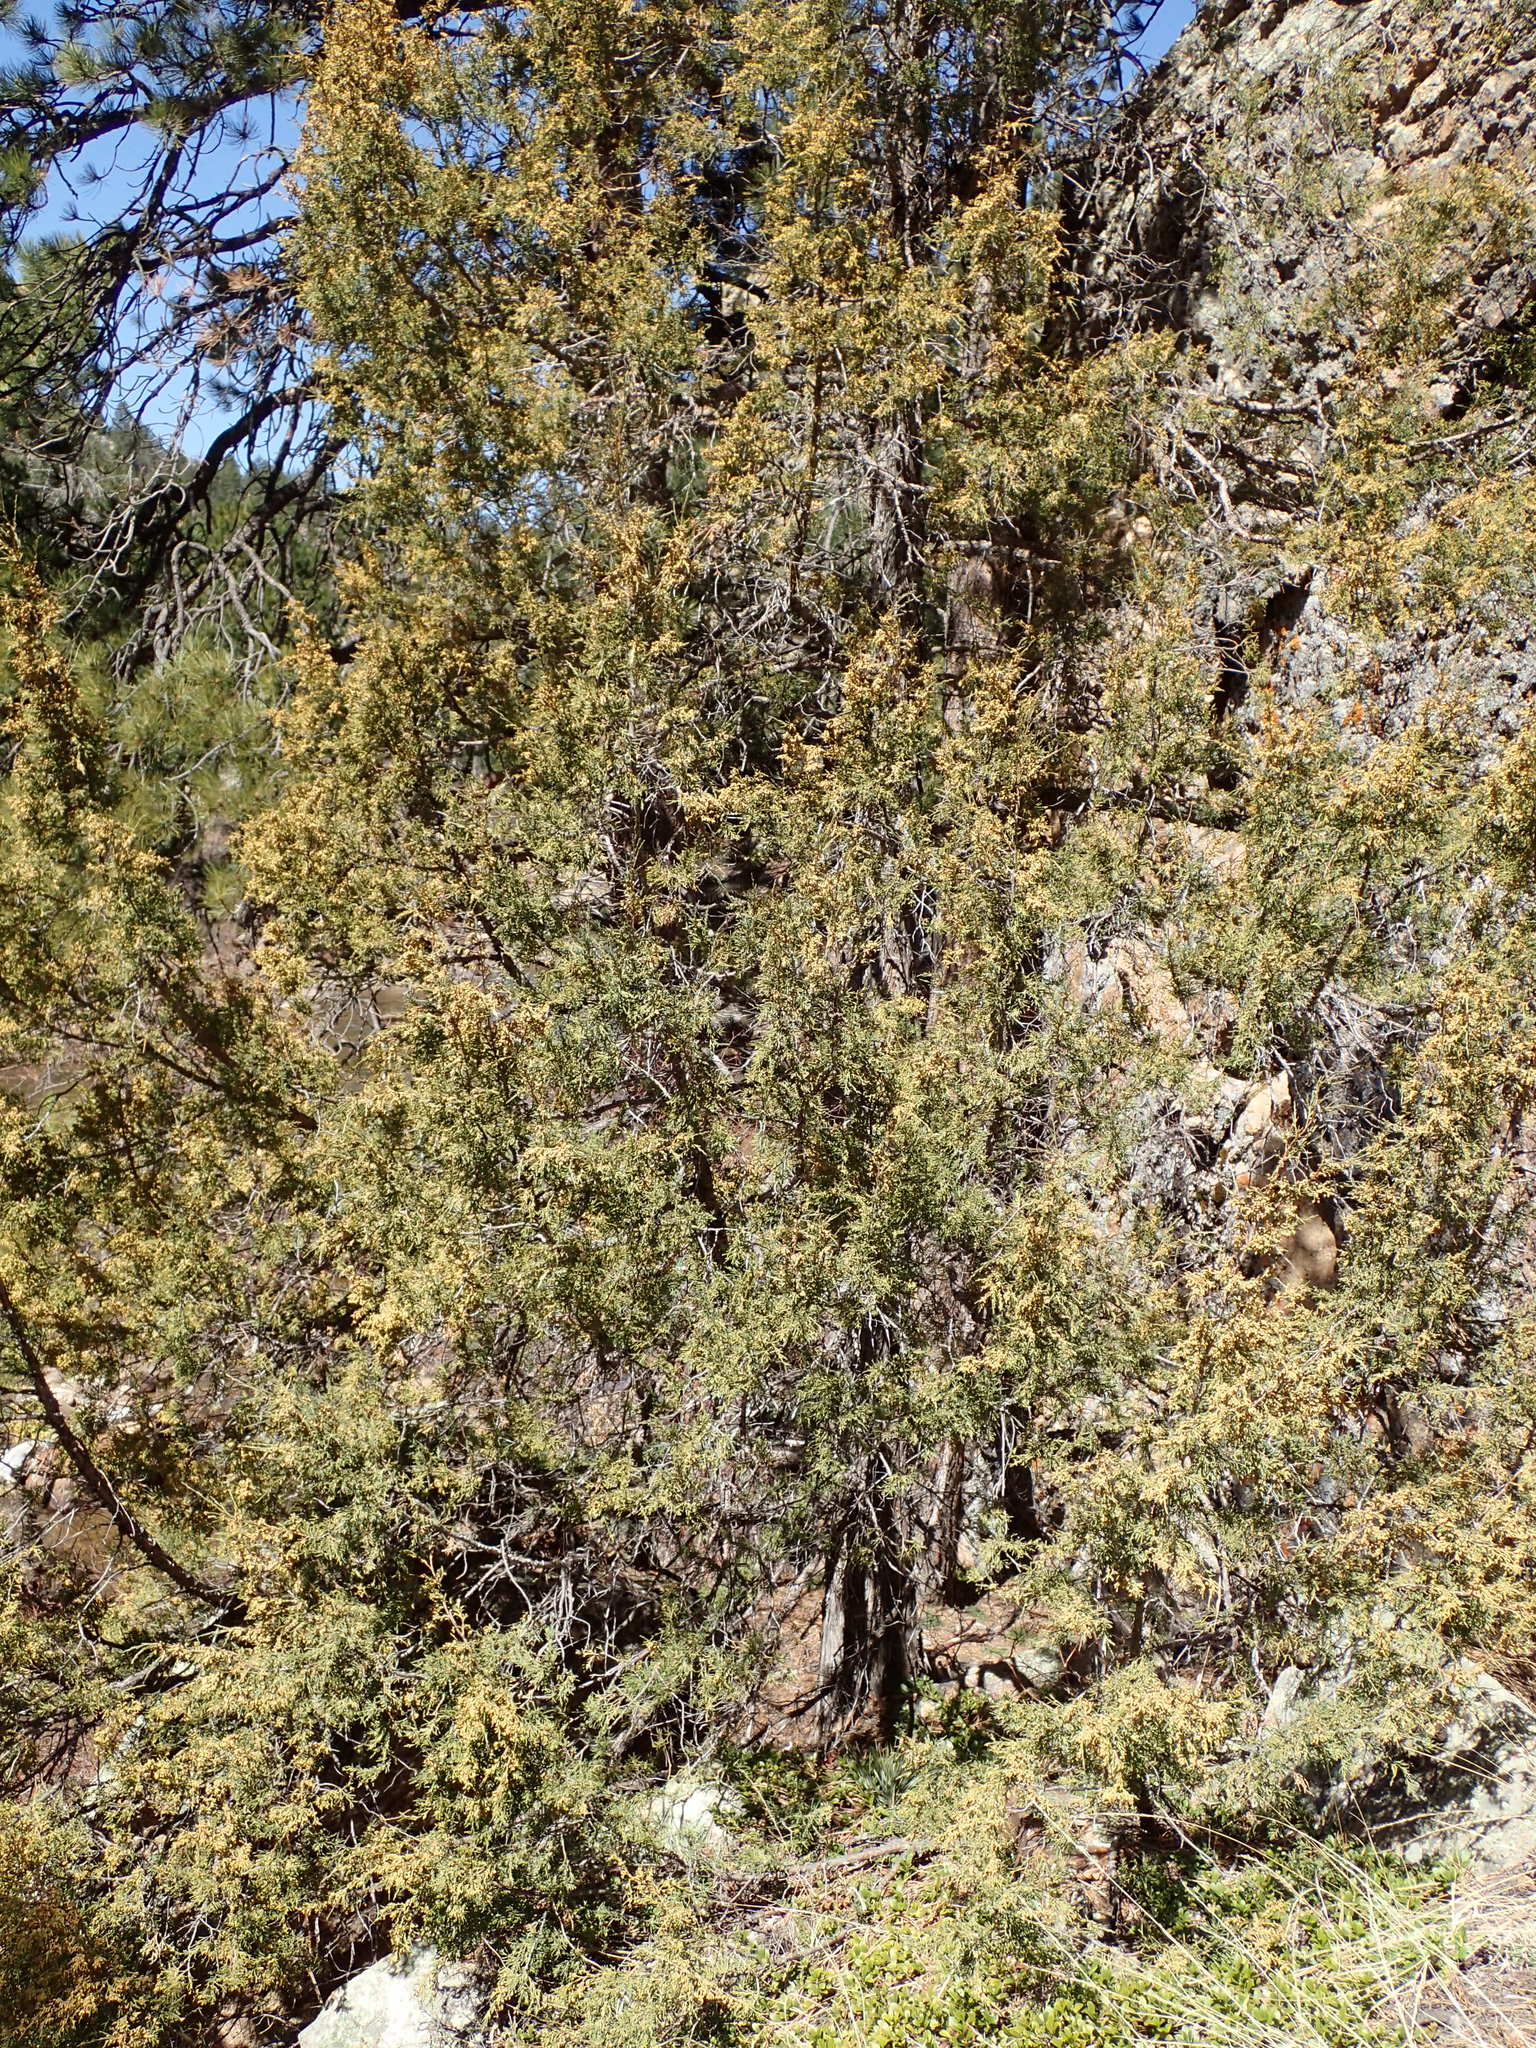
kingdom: Plantae
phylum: Tracheophyta
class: Pinopsida
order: Pinales
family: Cupressaceae
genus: Juniperus
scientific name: Juniperus scopulorum
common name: Rocky mountain juniper
